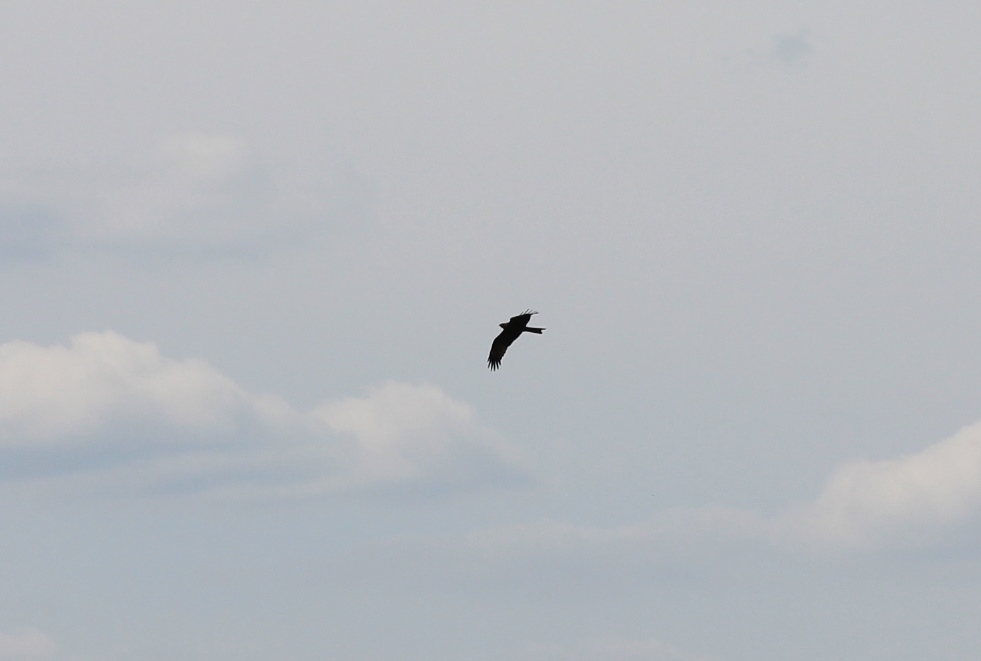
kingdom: Animalia
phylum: Chordata
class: Aves
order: Accipitriformes
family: Accipitridae
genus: Milvus
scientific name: Milvus migrans
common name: Black kite
